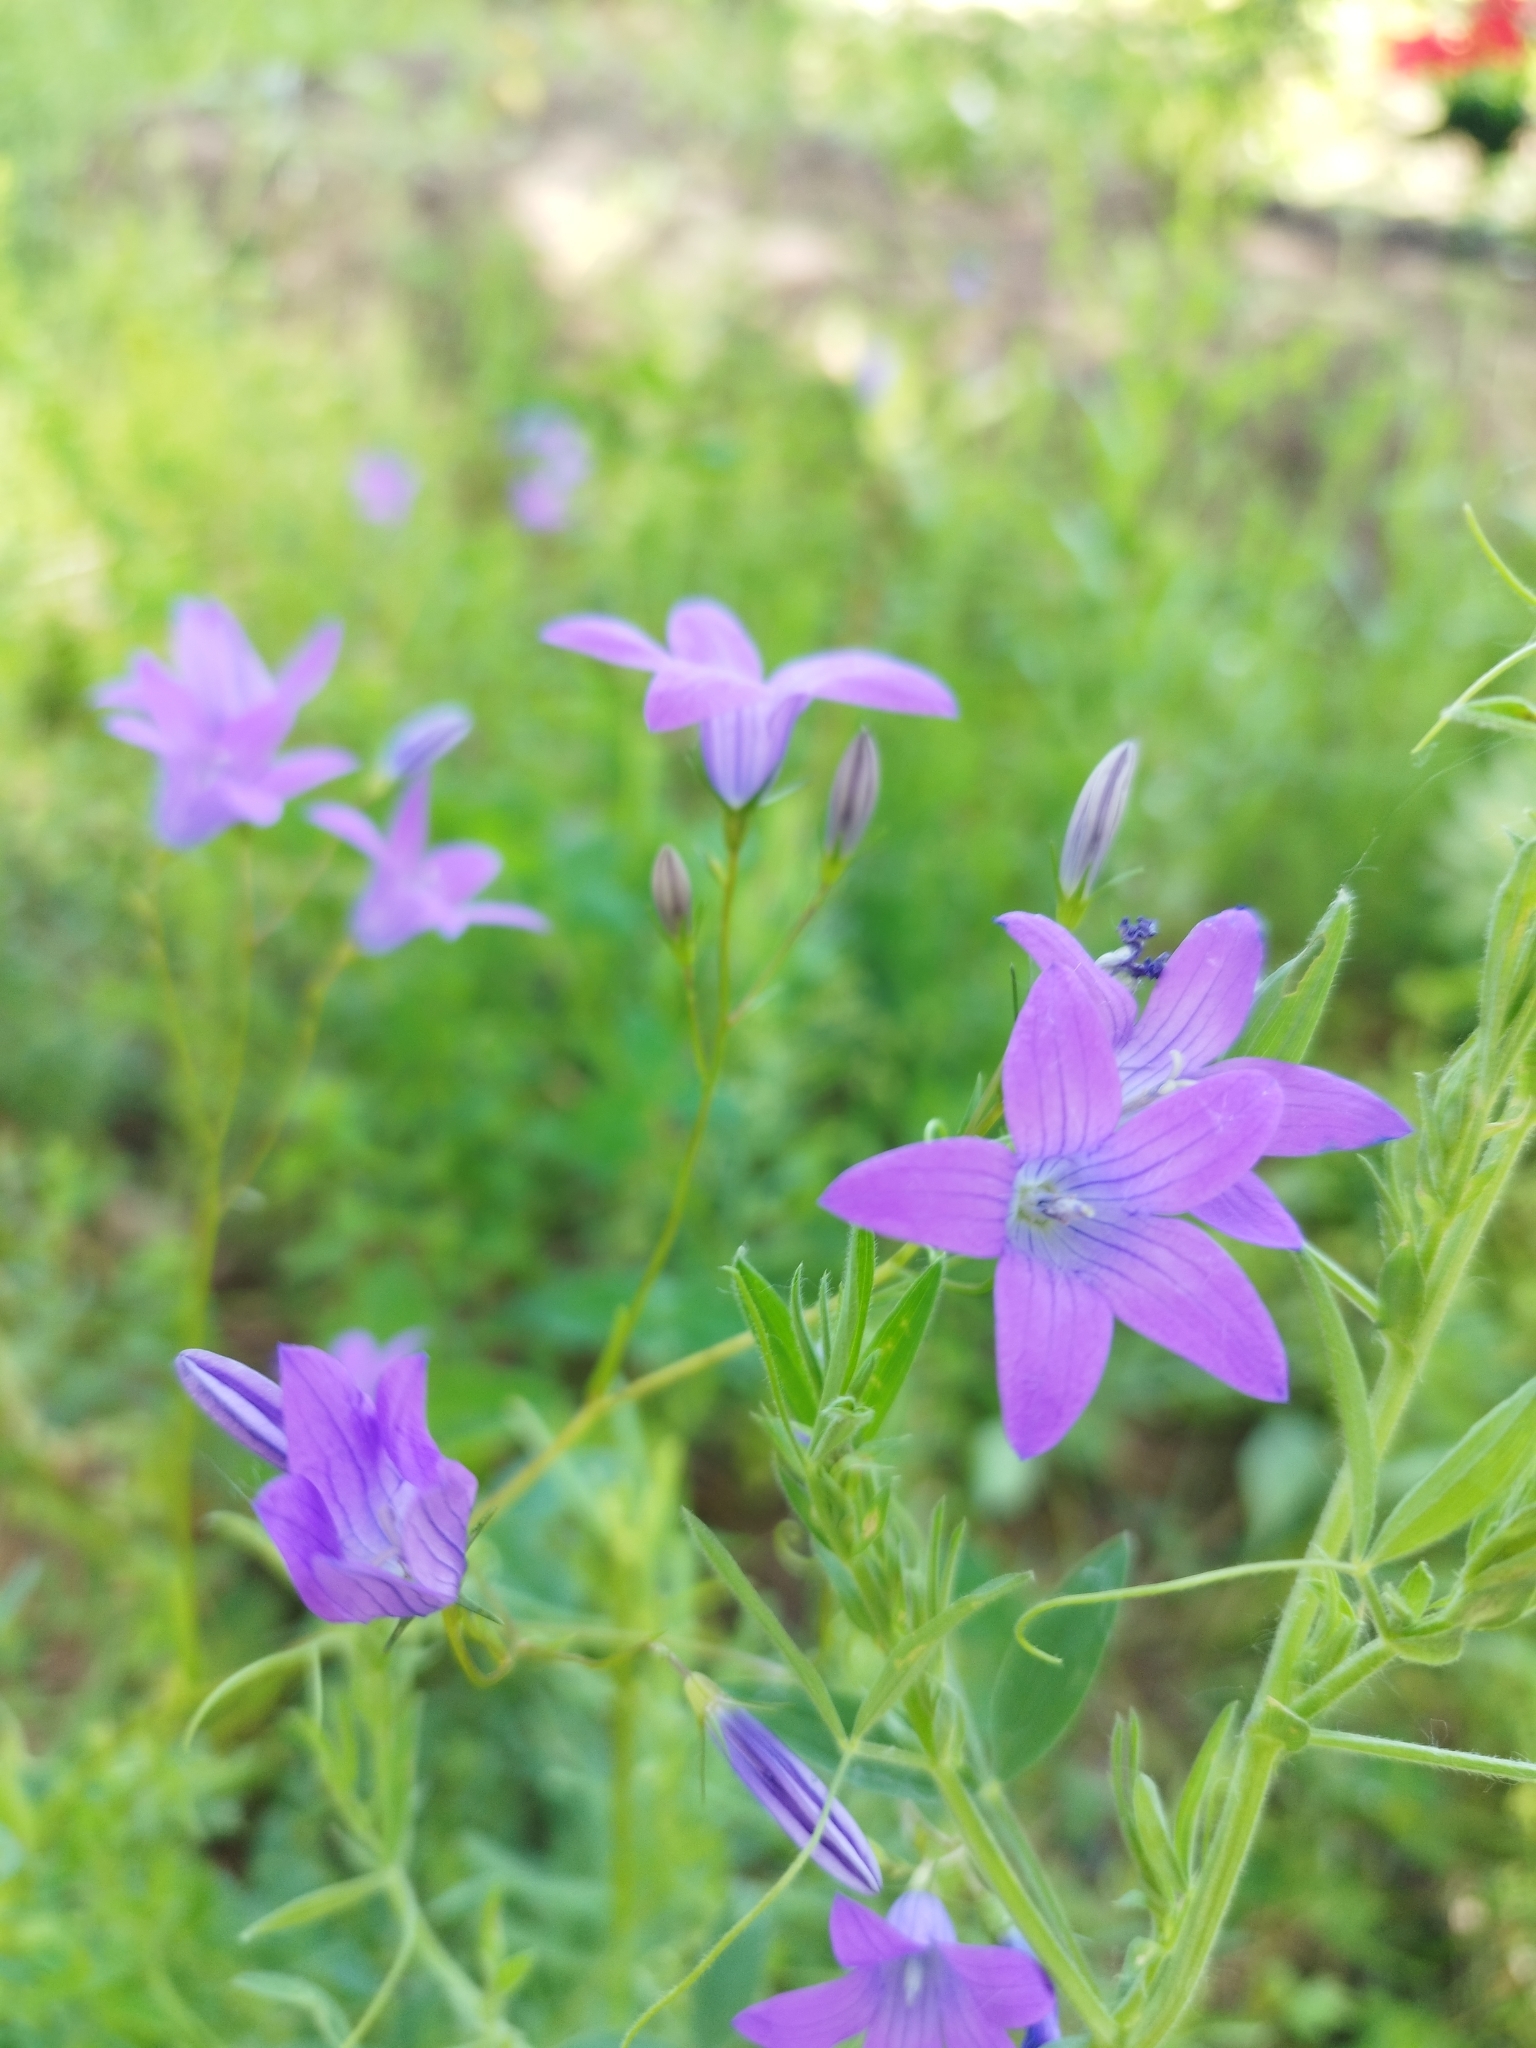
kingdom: Plantae
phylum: Tracheophyta
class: Magnoliopsida
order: Asterales
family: Campanulaceae
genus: Campanula
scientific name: Campanula patula
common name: Spreading bellflower
